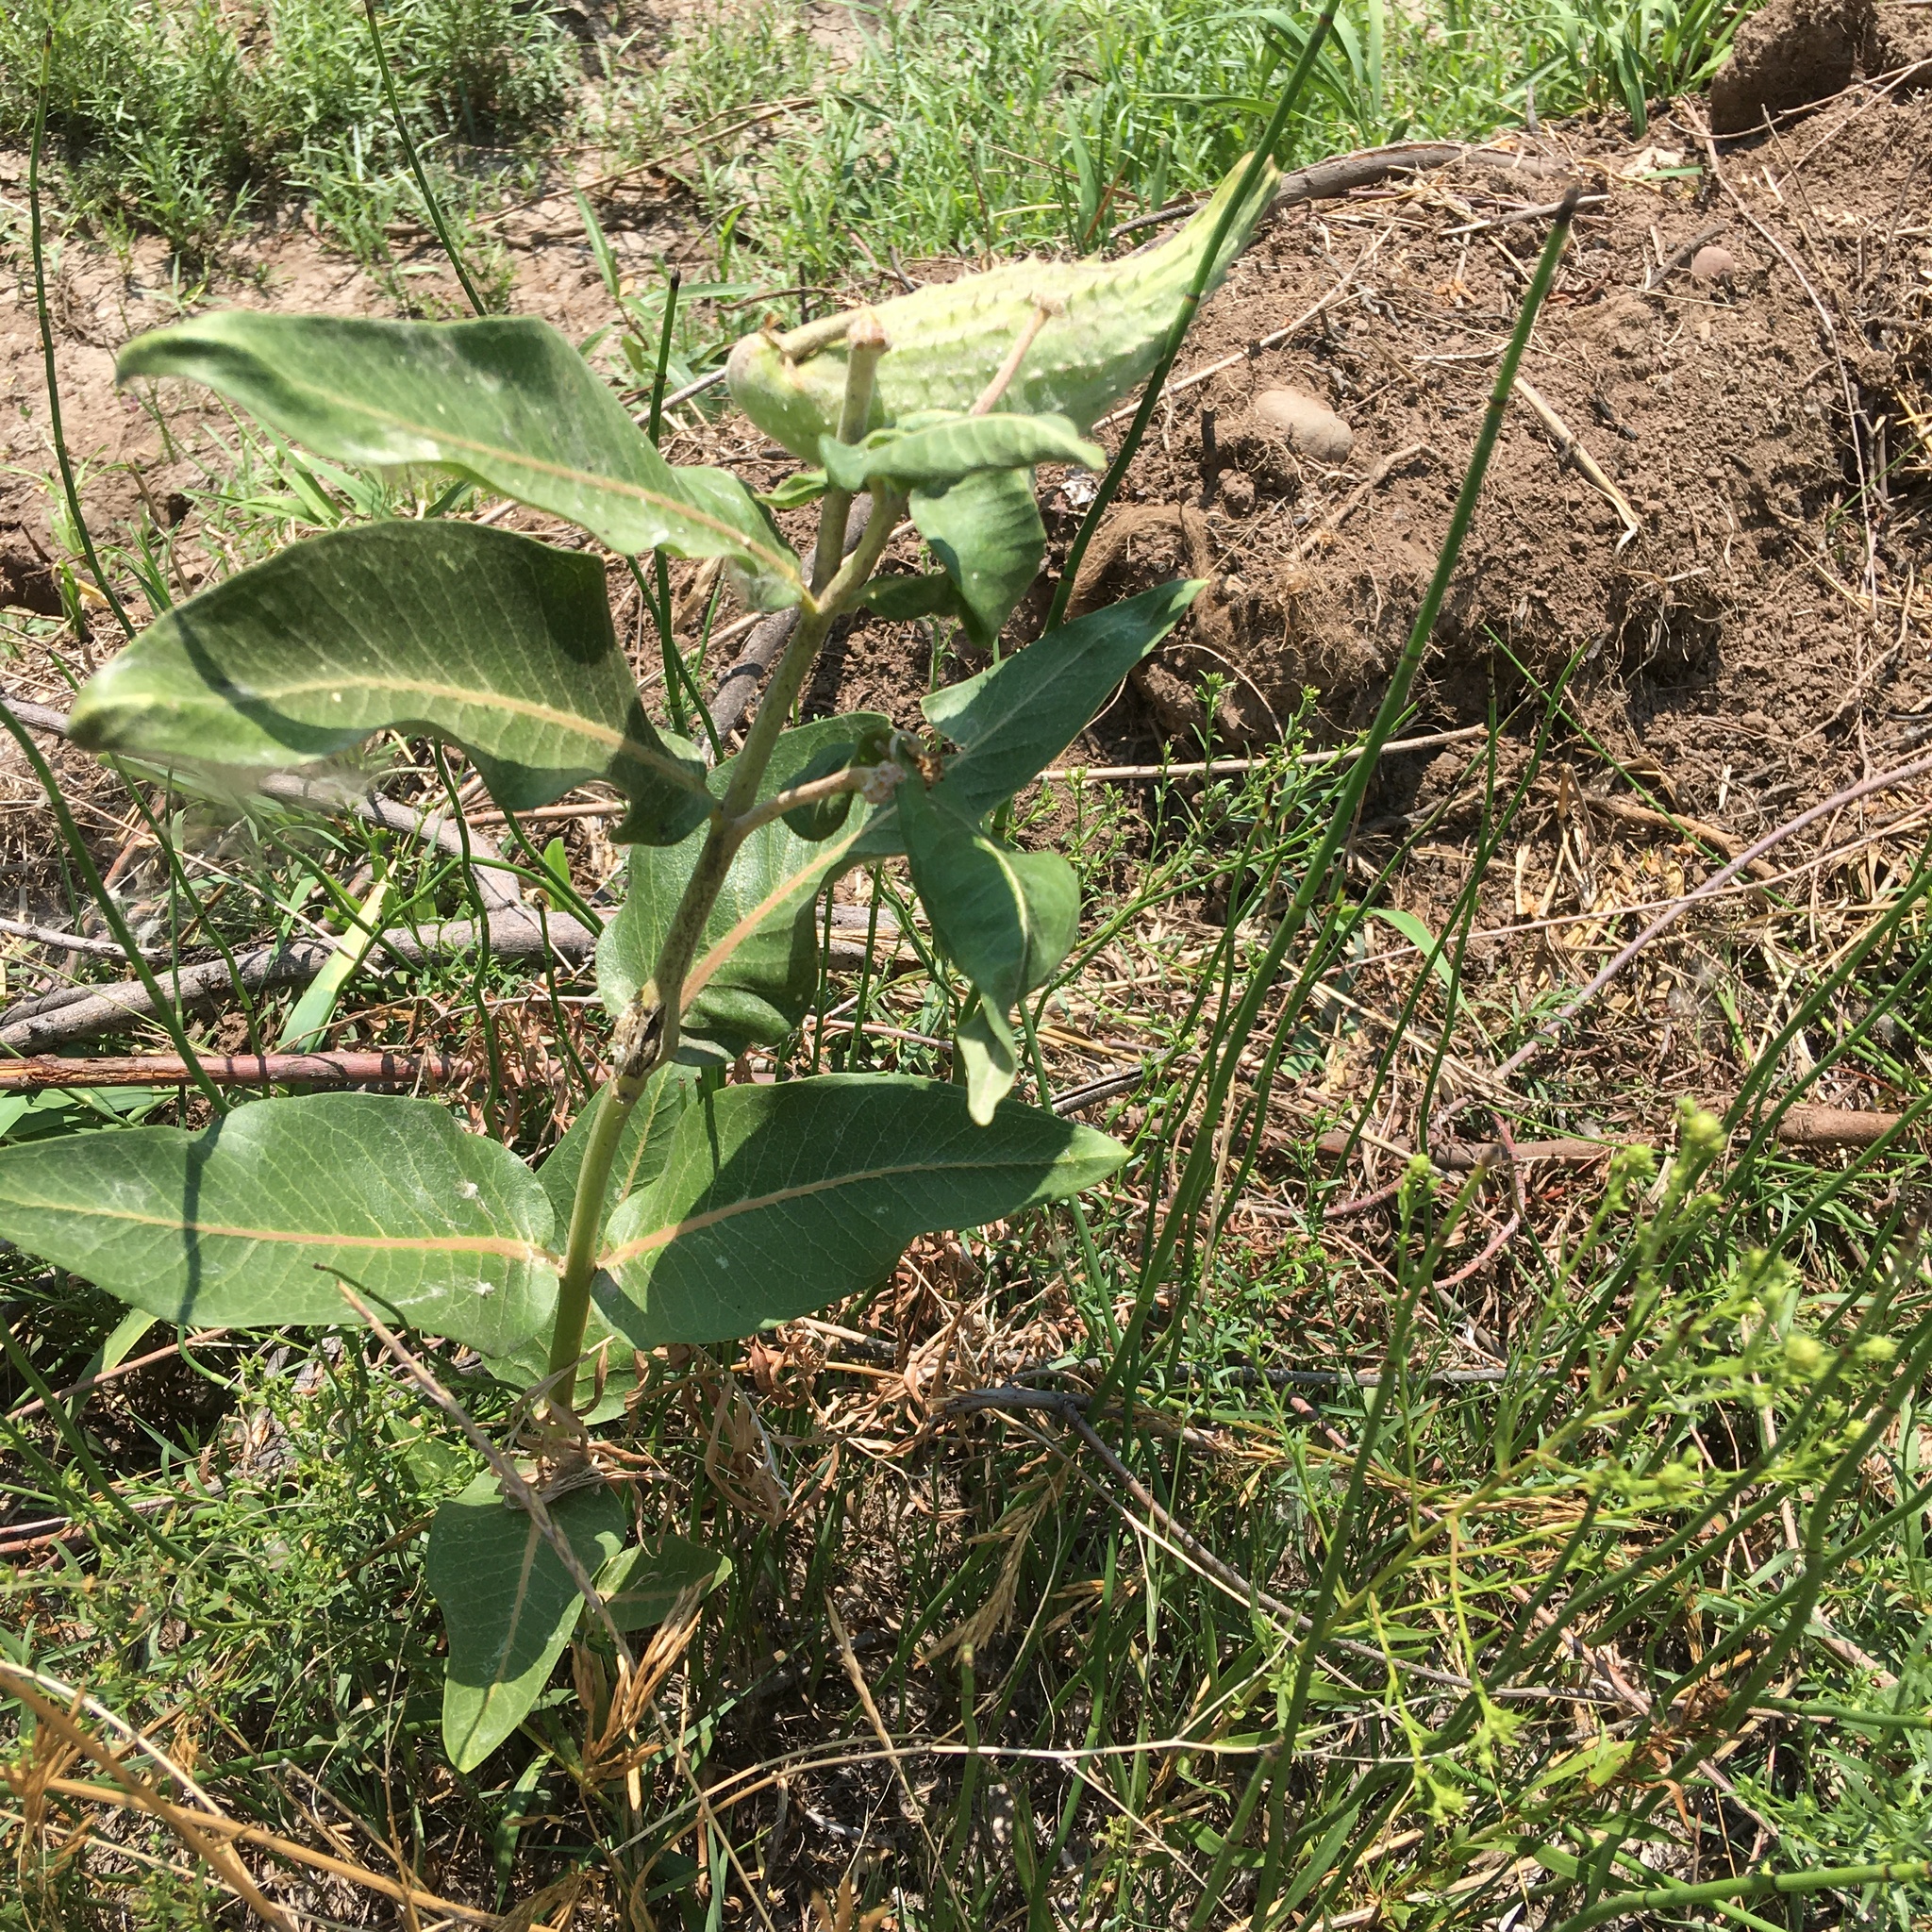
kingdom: Plantae
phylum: Tracheophyta
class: Magnoliopsida
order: Gentianales
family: Apocynaceae
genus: Asclepias
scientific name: Asclepias speciosa
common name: Showy milkweed
